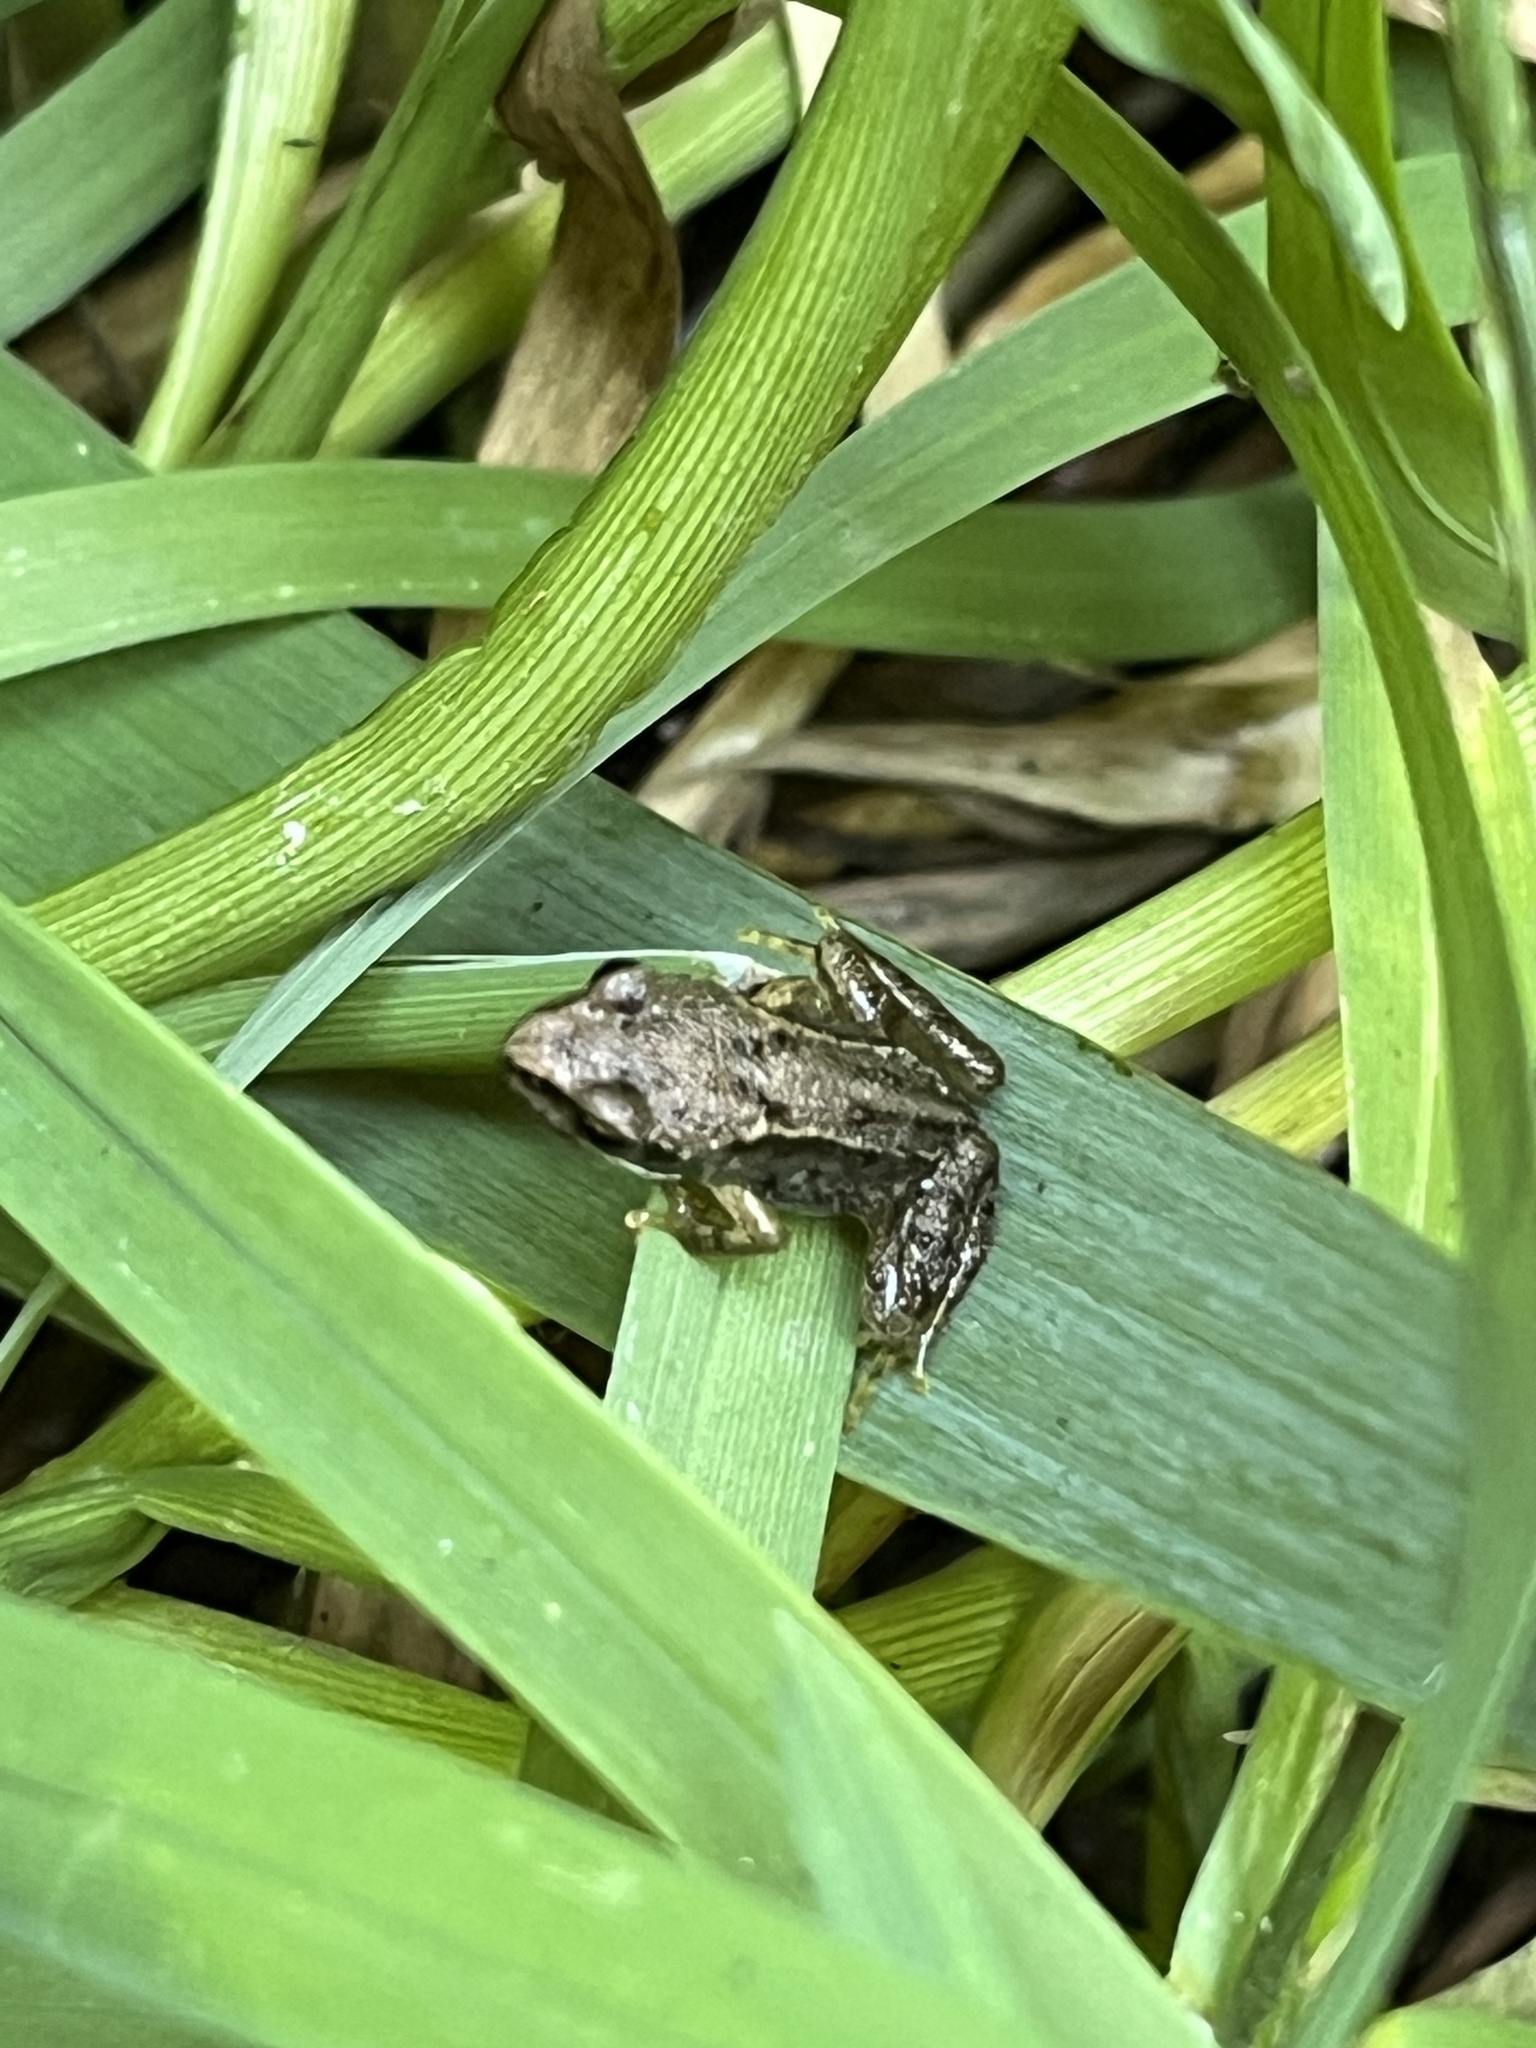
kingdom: Animalia
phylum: Chordata
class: Amphibia
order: Anura
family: Ranidae
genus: Rana
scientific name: Rana temporaria
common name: Common frog
